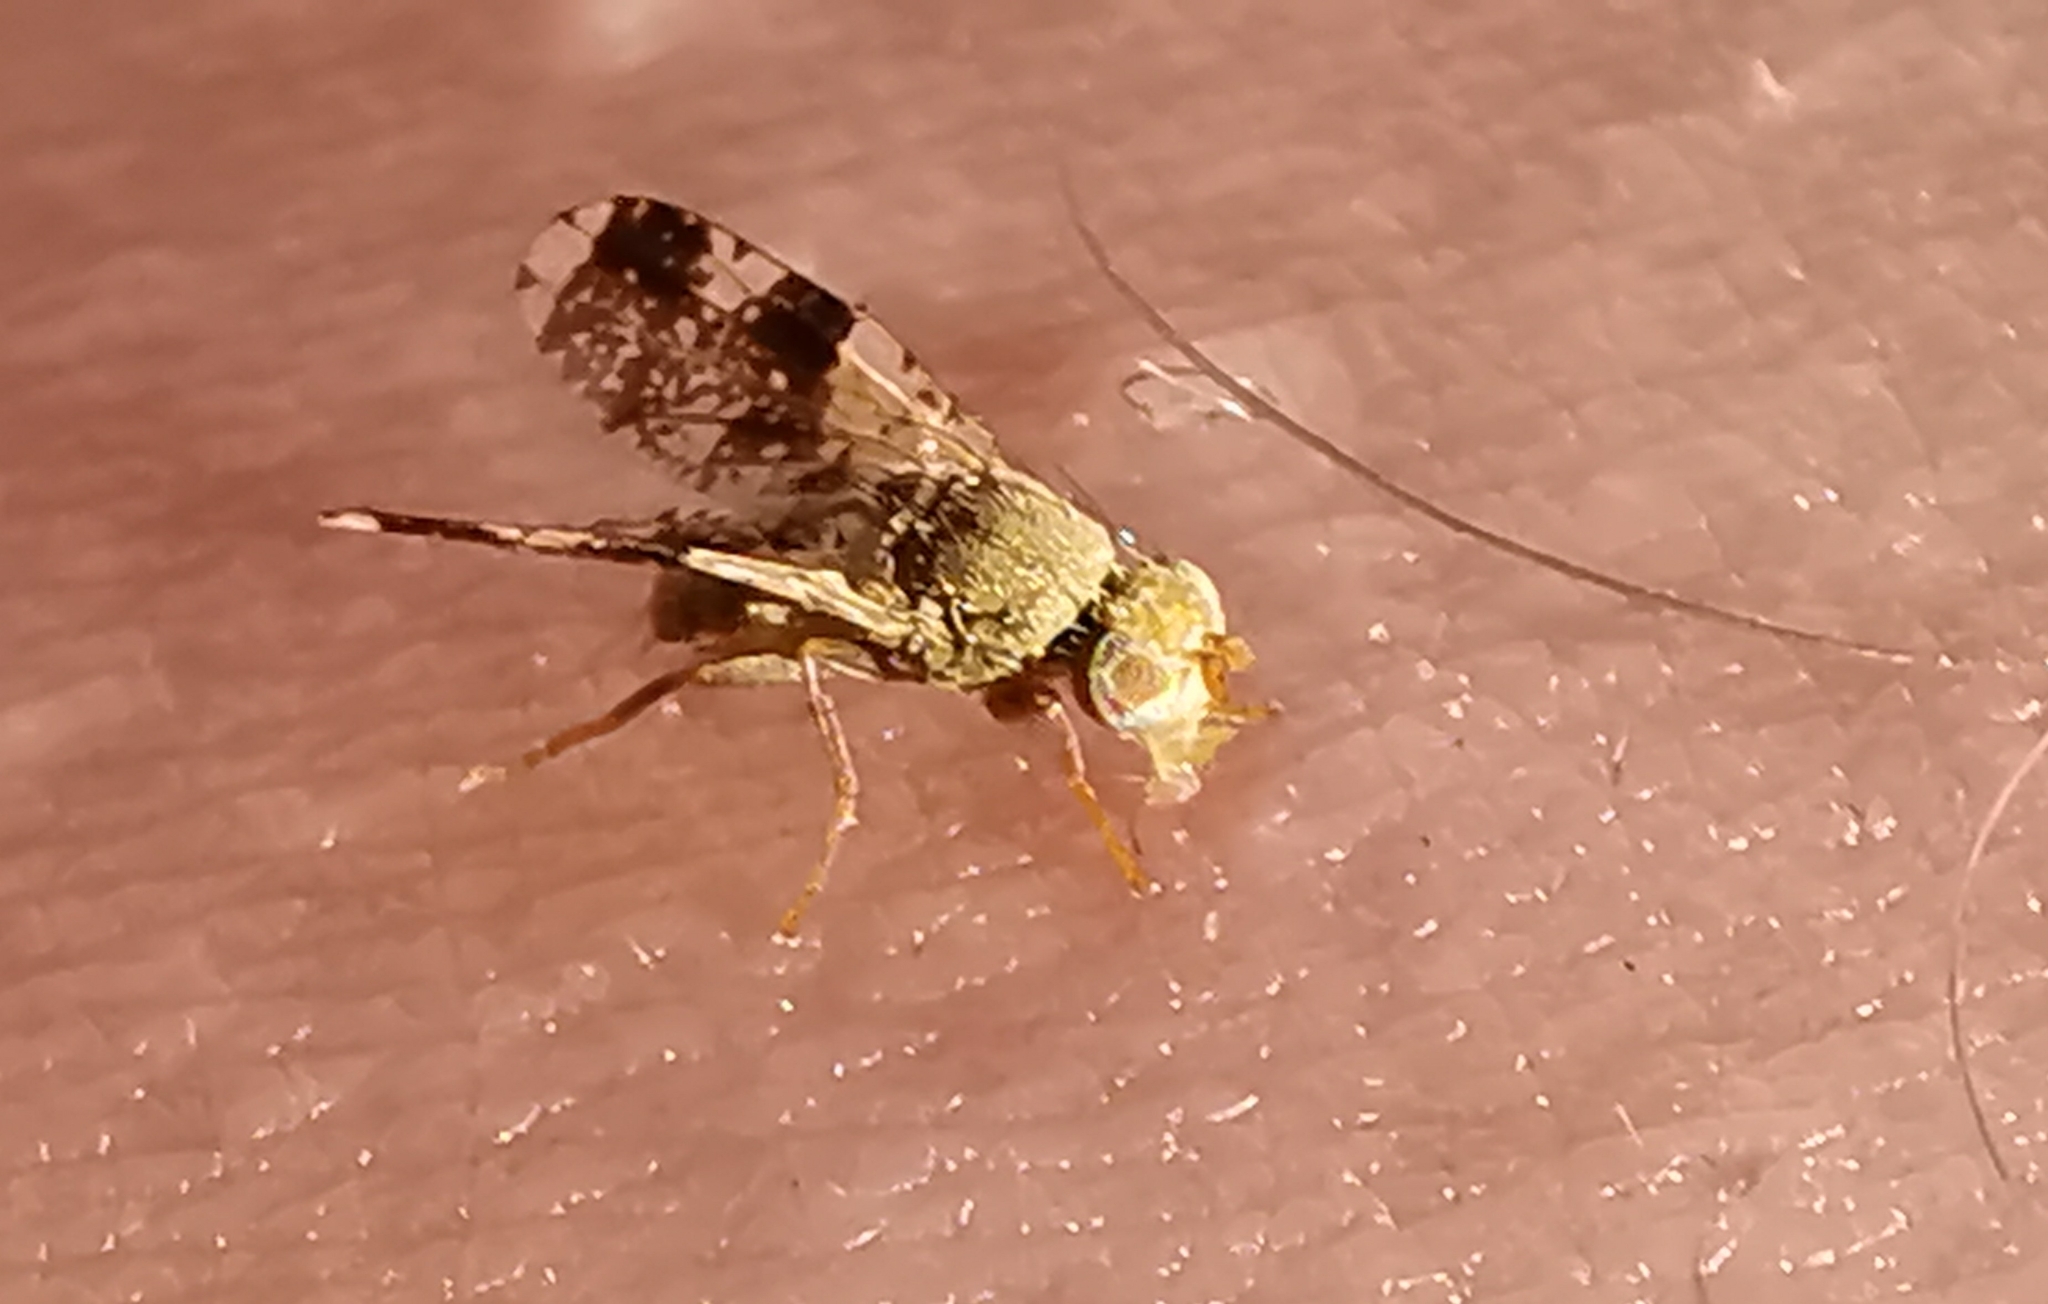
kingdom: Animalia
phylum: Arthropoda
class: Insecta
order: Diptera
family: Tephritidae
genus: Tephritis
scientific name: Tephritis formosa
